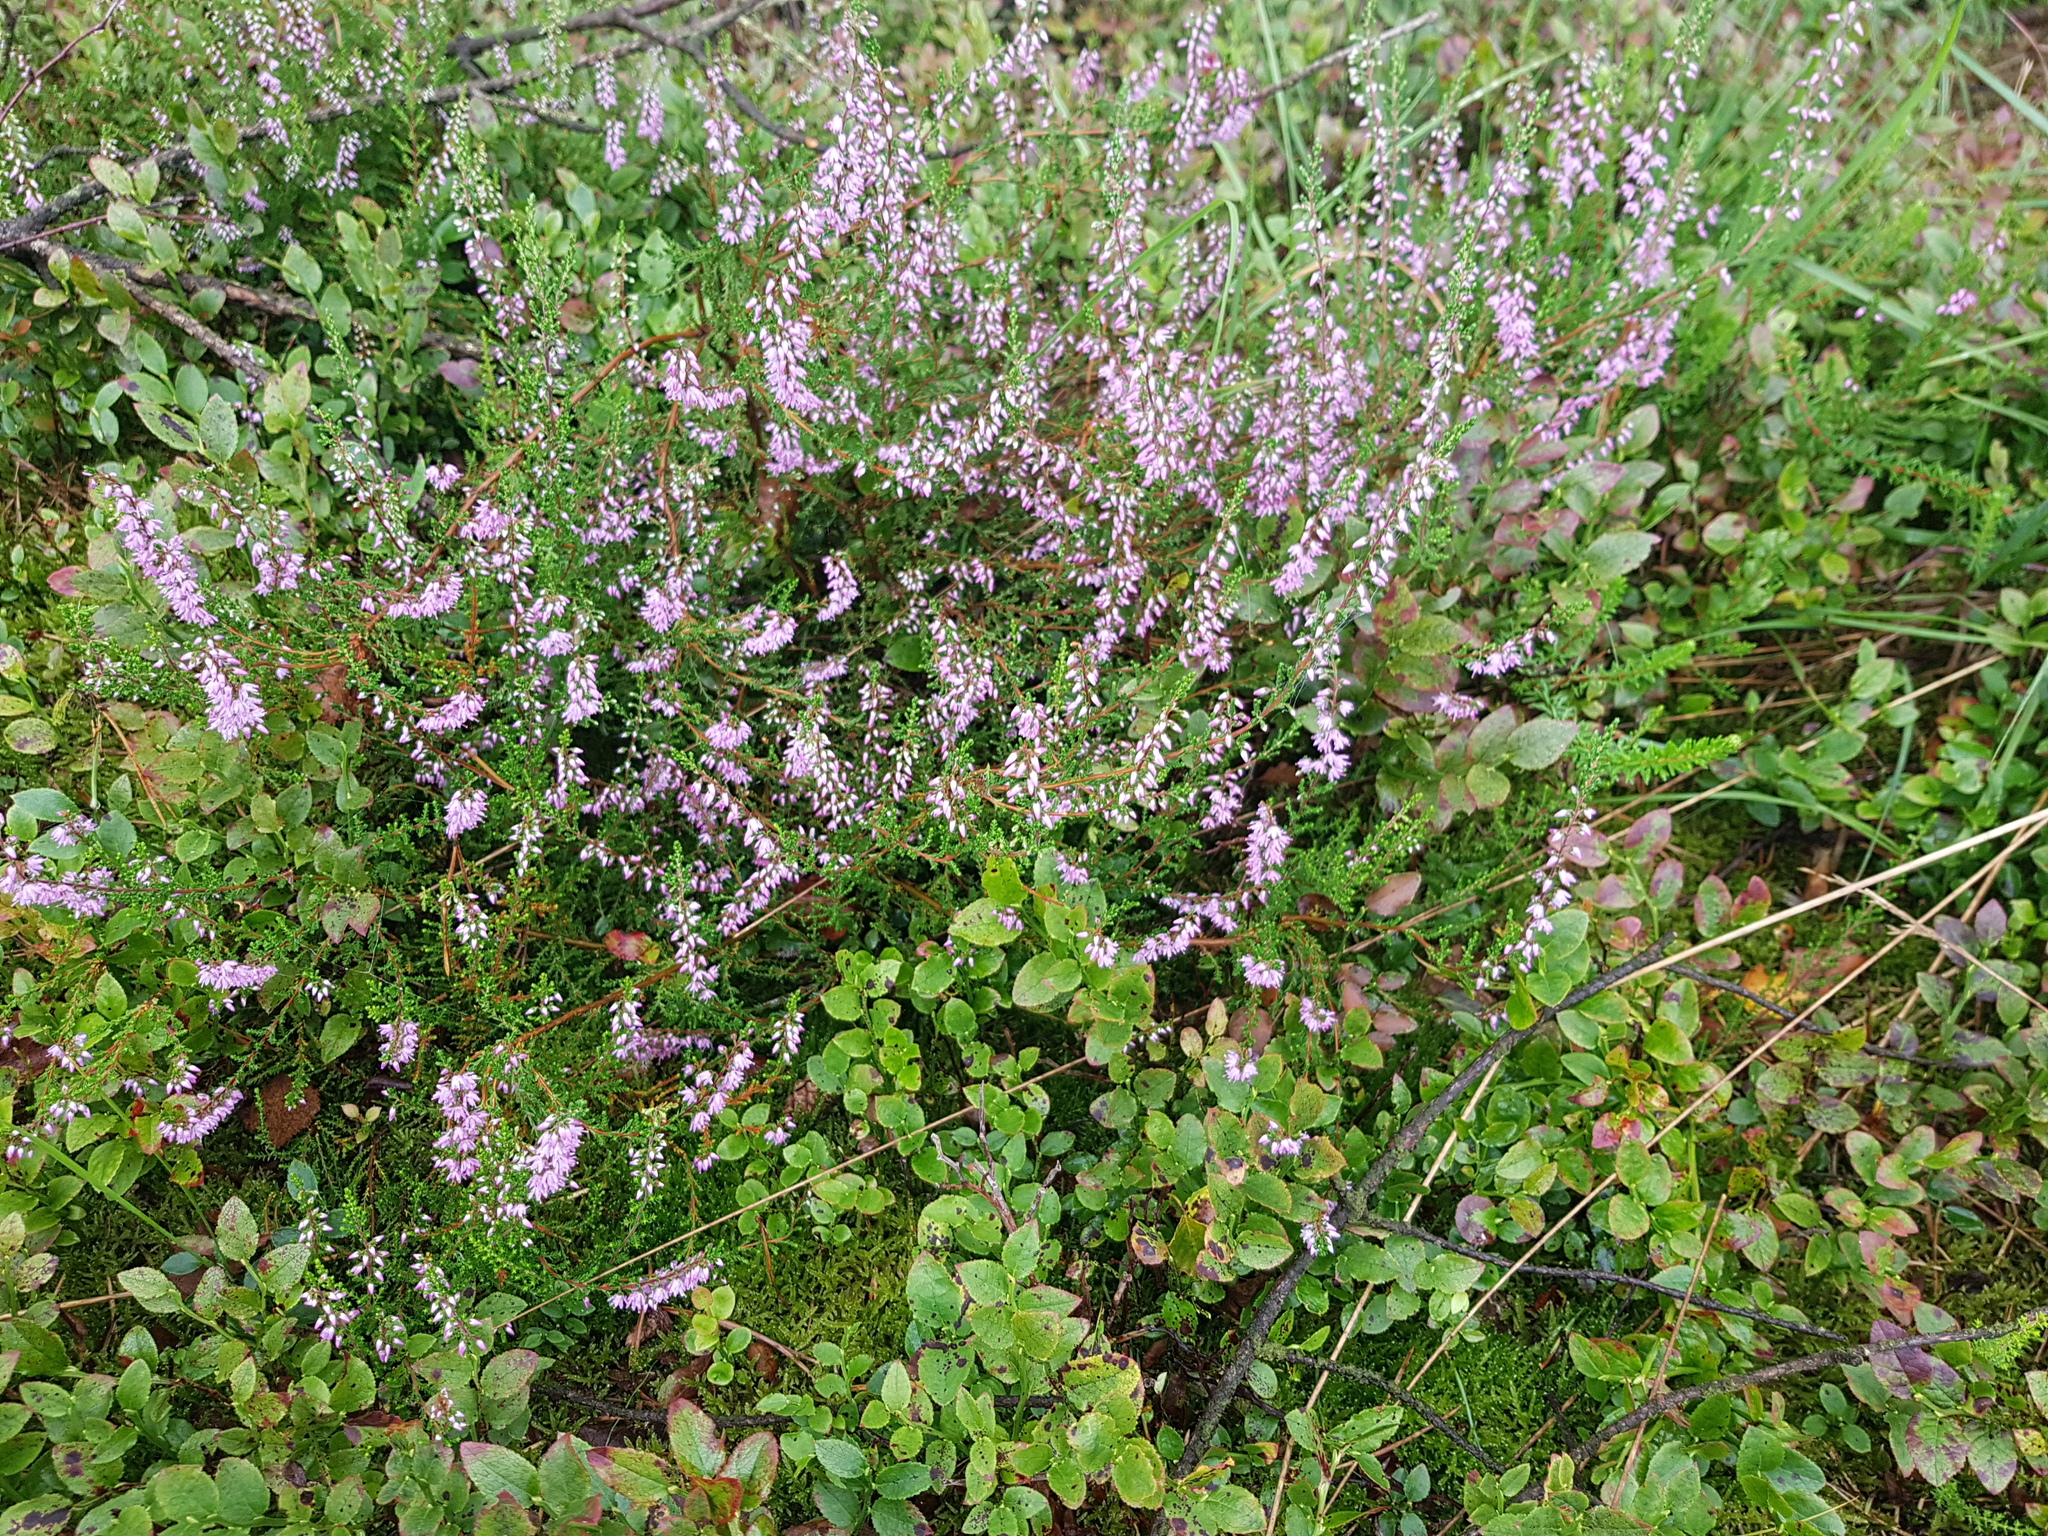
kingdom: Plantae
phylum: Tracheophyta
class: Magnoliopsida
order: Ericales
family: Ericaceae
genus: Calluna
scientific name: Calluna vulgaris
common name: Heather
